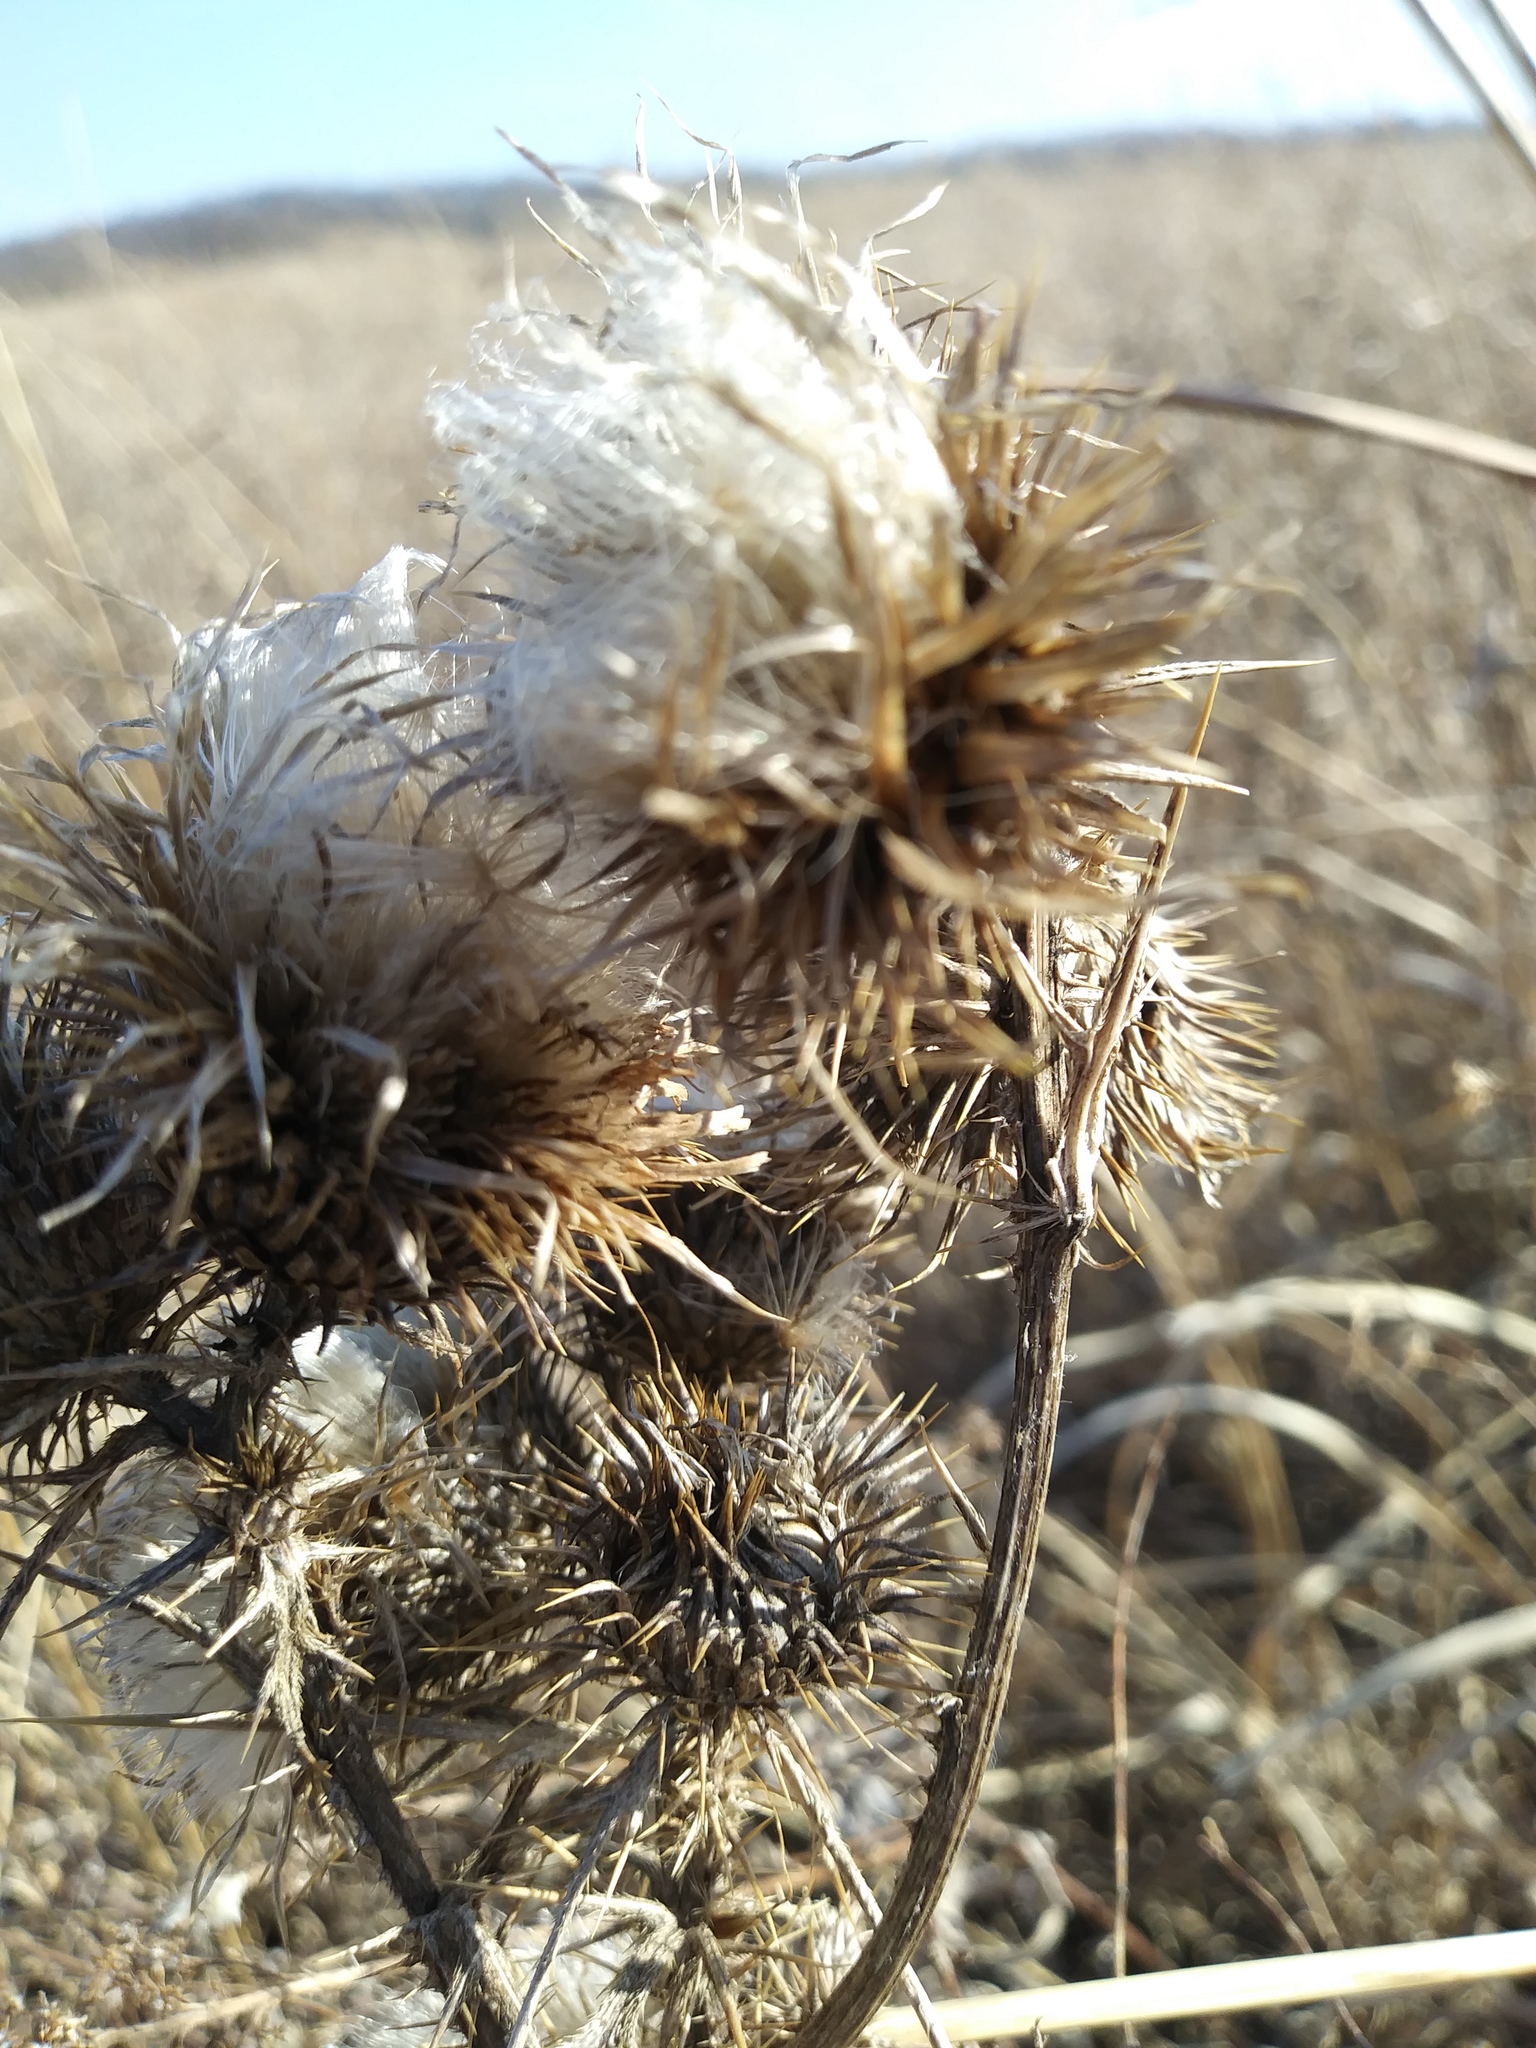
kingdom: Plantae
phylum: Tracheophyta
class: Magnoliopsida
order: Asterales
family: Asteraceae
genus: Cirsium
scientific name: Cirsium vulgare
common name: Bull thistle
